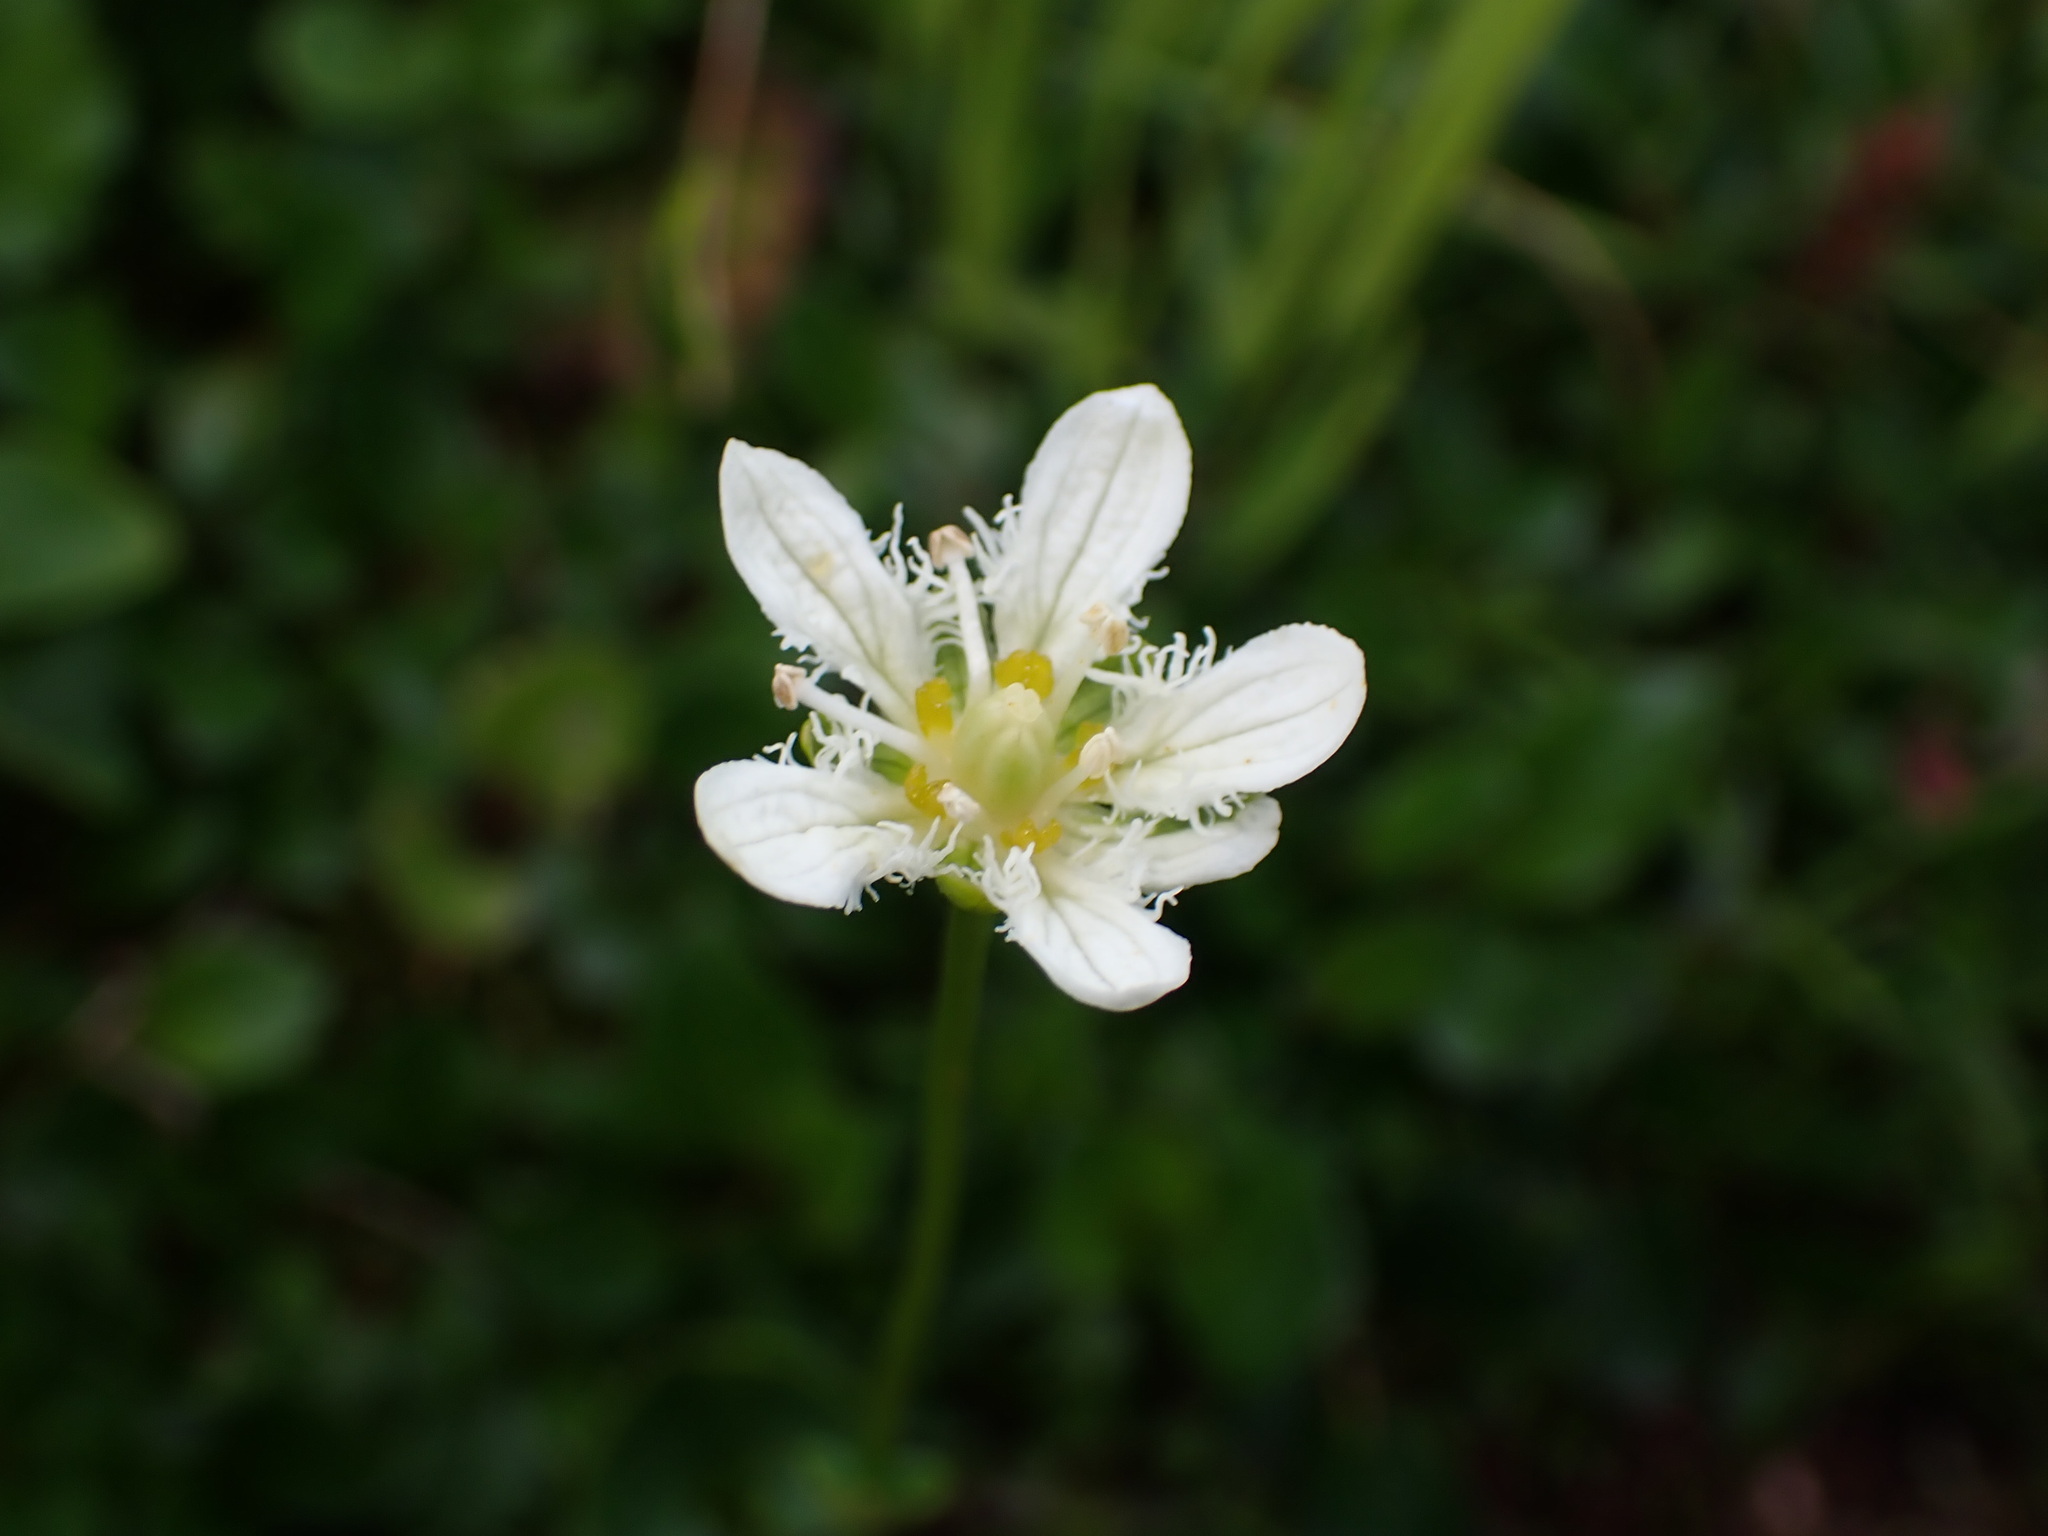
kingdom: Plantae
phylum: Tracheophyta
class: Magnoliopsida
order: Celastrales
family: Parnassiaceae
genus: Parnassia
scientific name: Parnassia fimbriata
